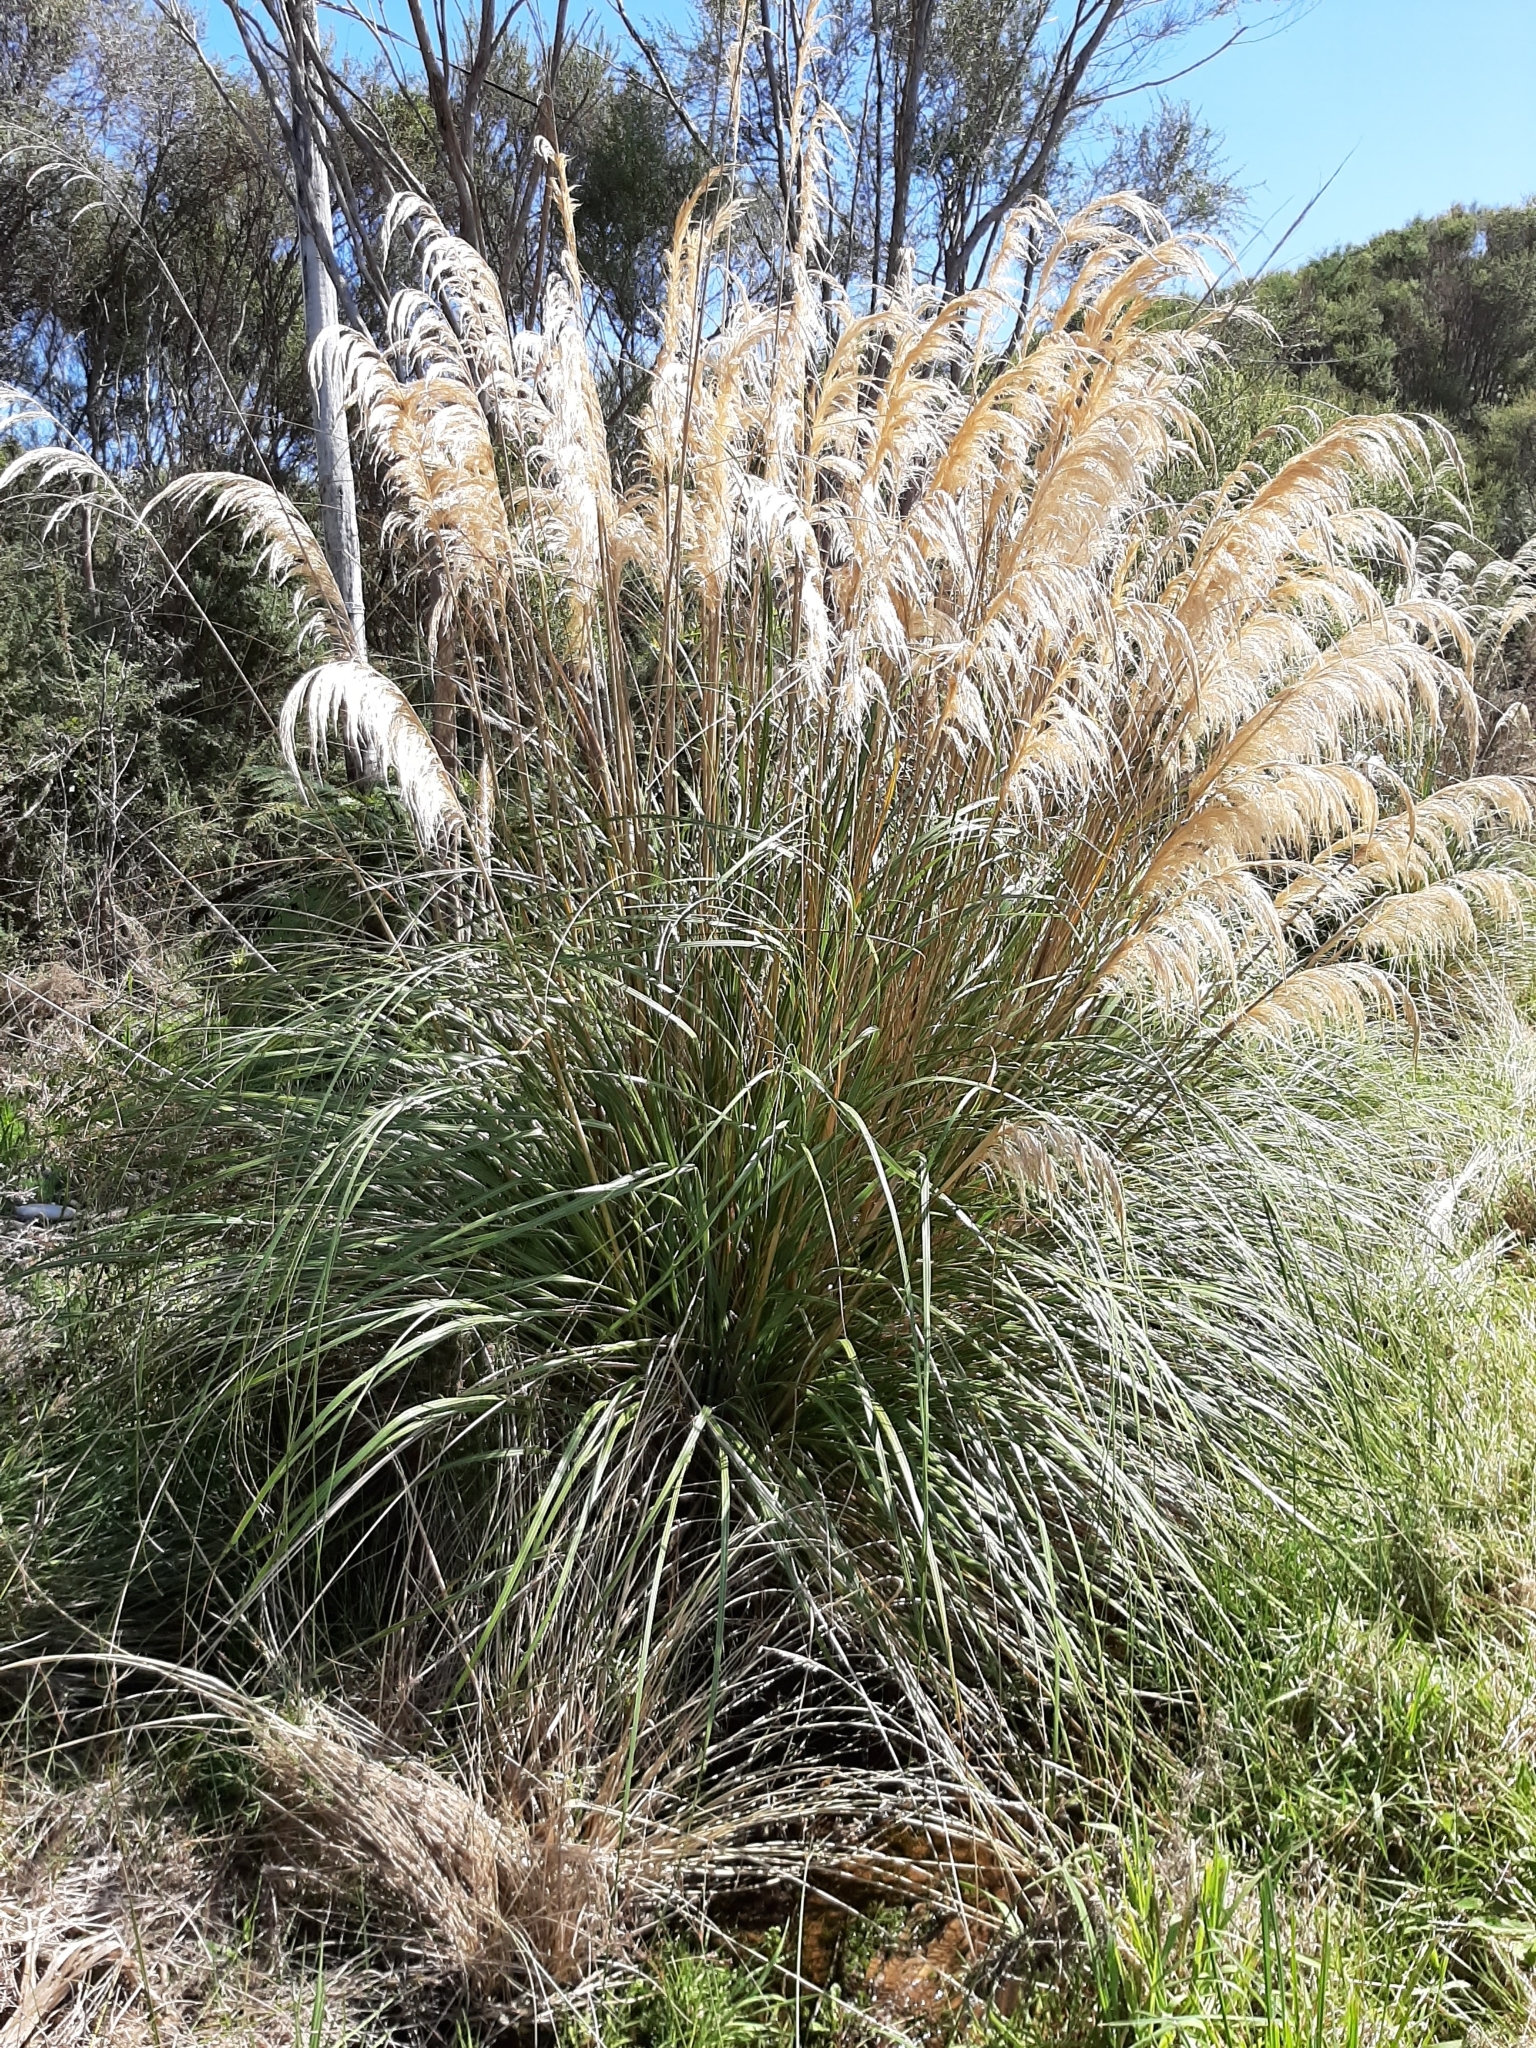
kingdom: Plantae
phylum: Tracheophyta
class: Liliopsida
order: Poales
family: Poaceae
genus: Austroderia
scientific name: Austroderia richardii
